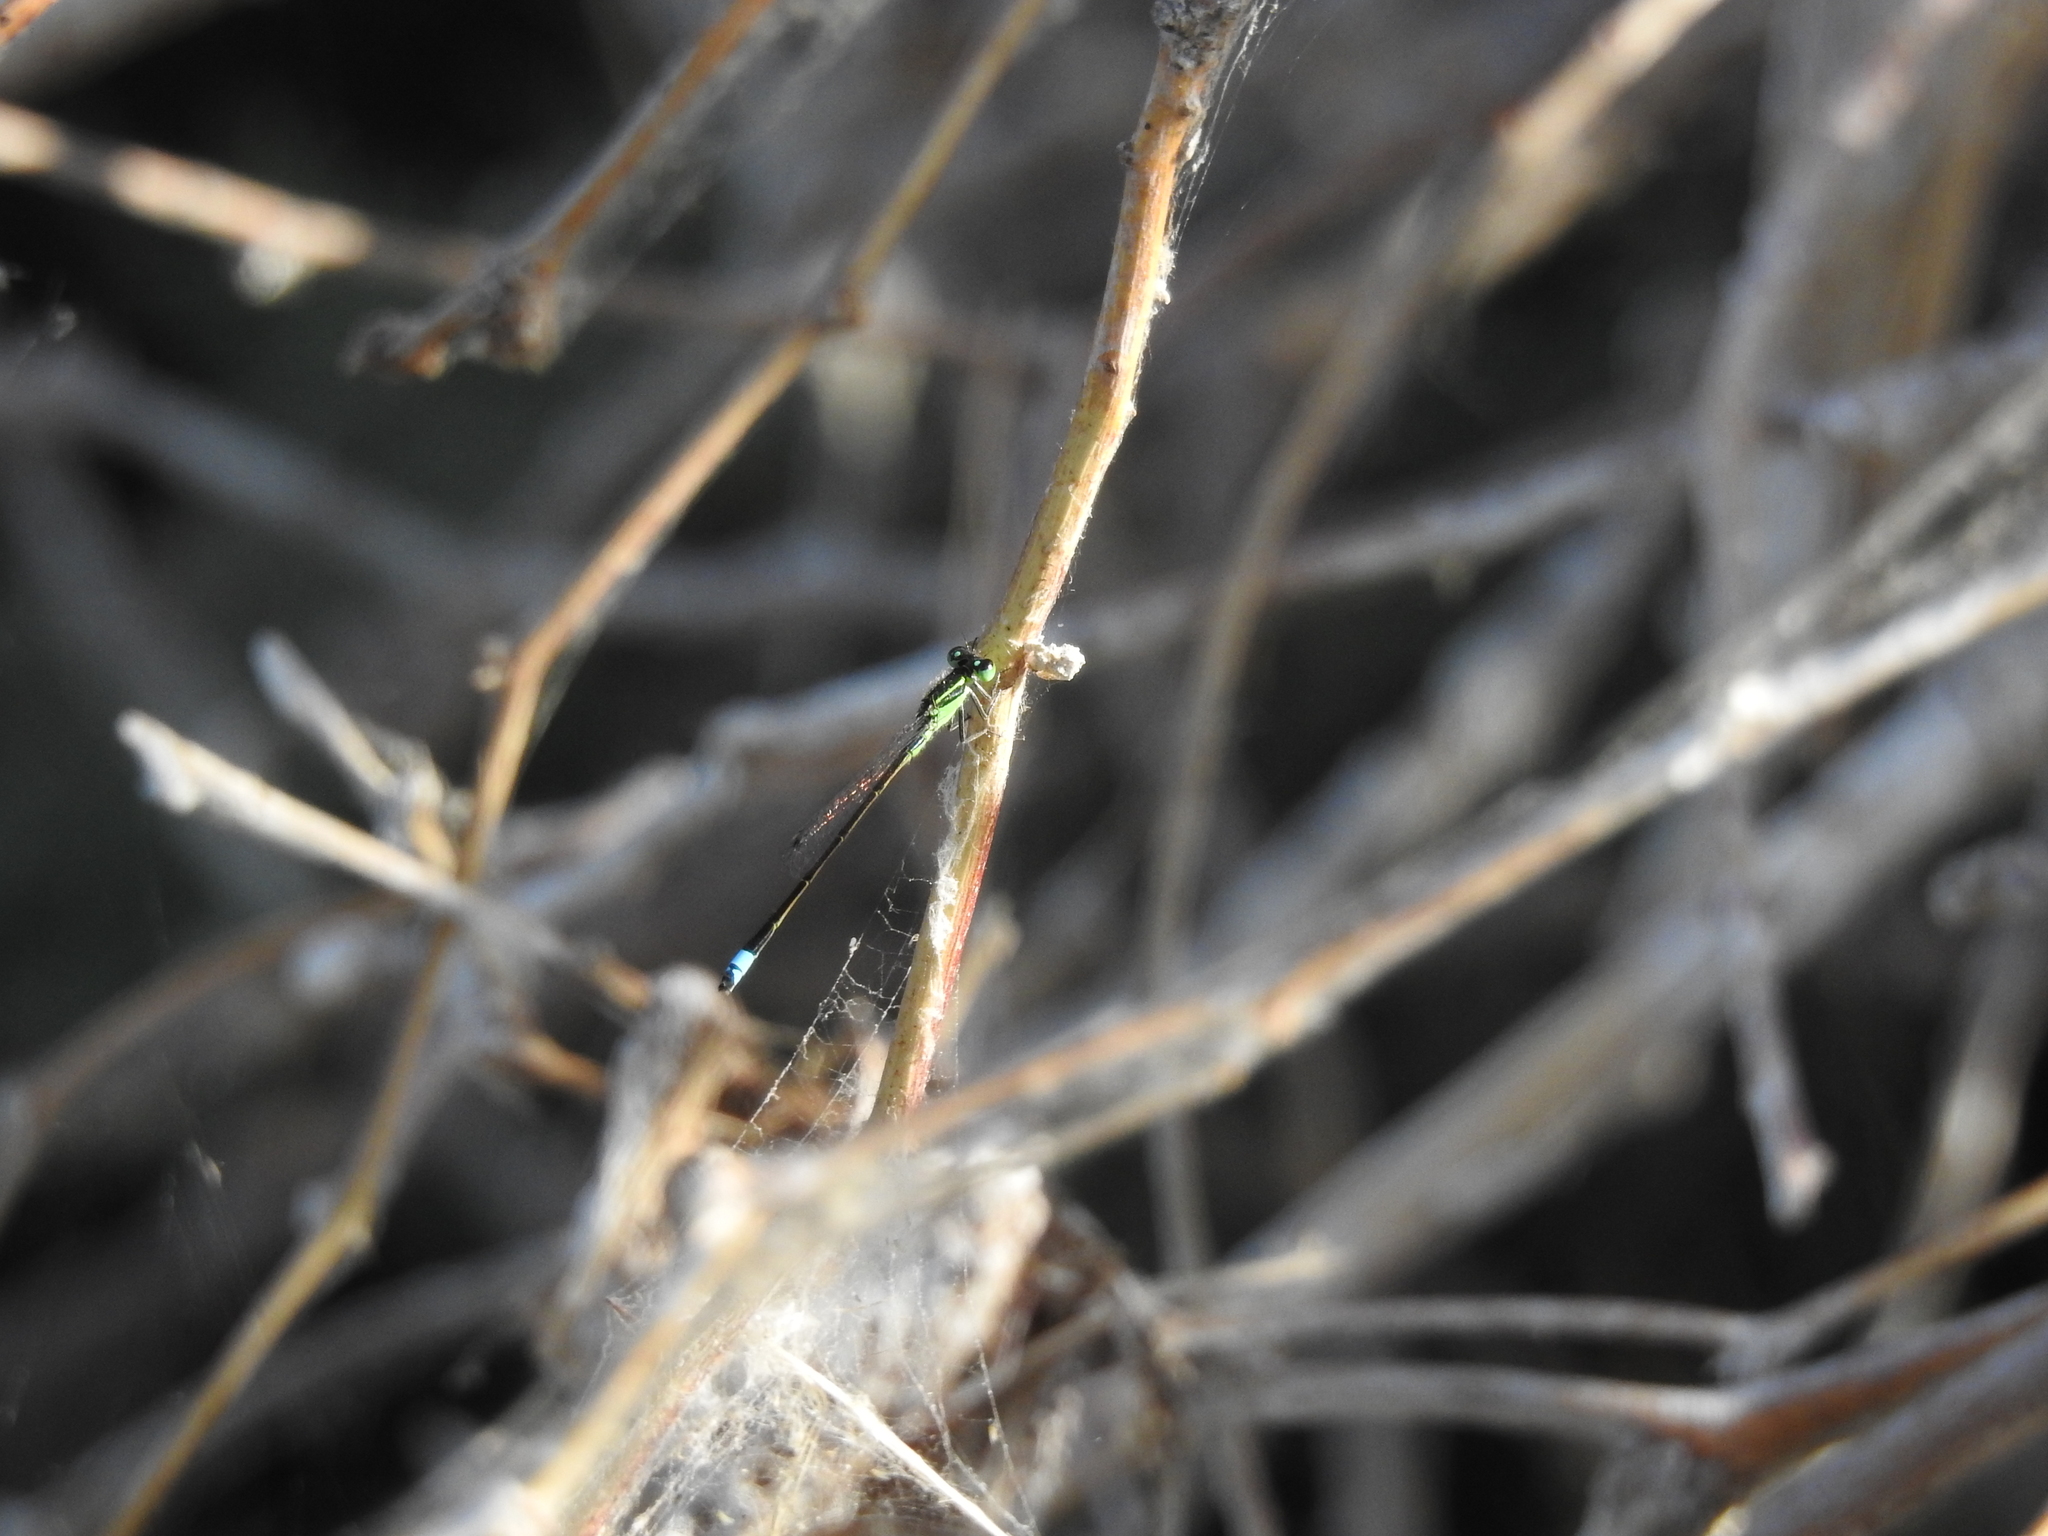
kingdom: Animalia
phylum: Arthropoda
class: Insecta
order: Odonata
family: Coenagrionidae
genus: Ischnura
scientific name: Ischnura ramburii
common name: Rambur's forktail
